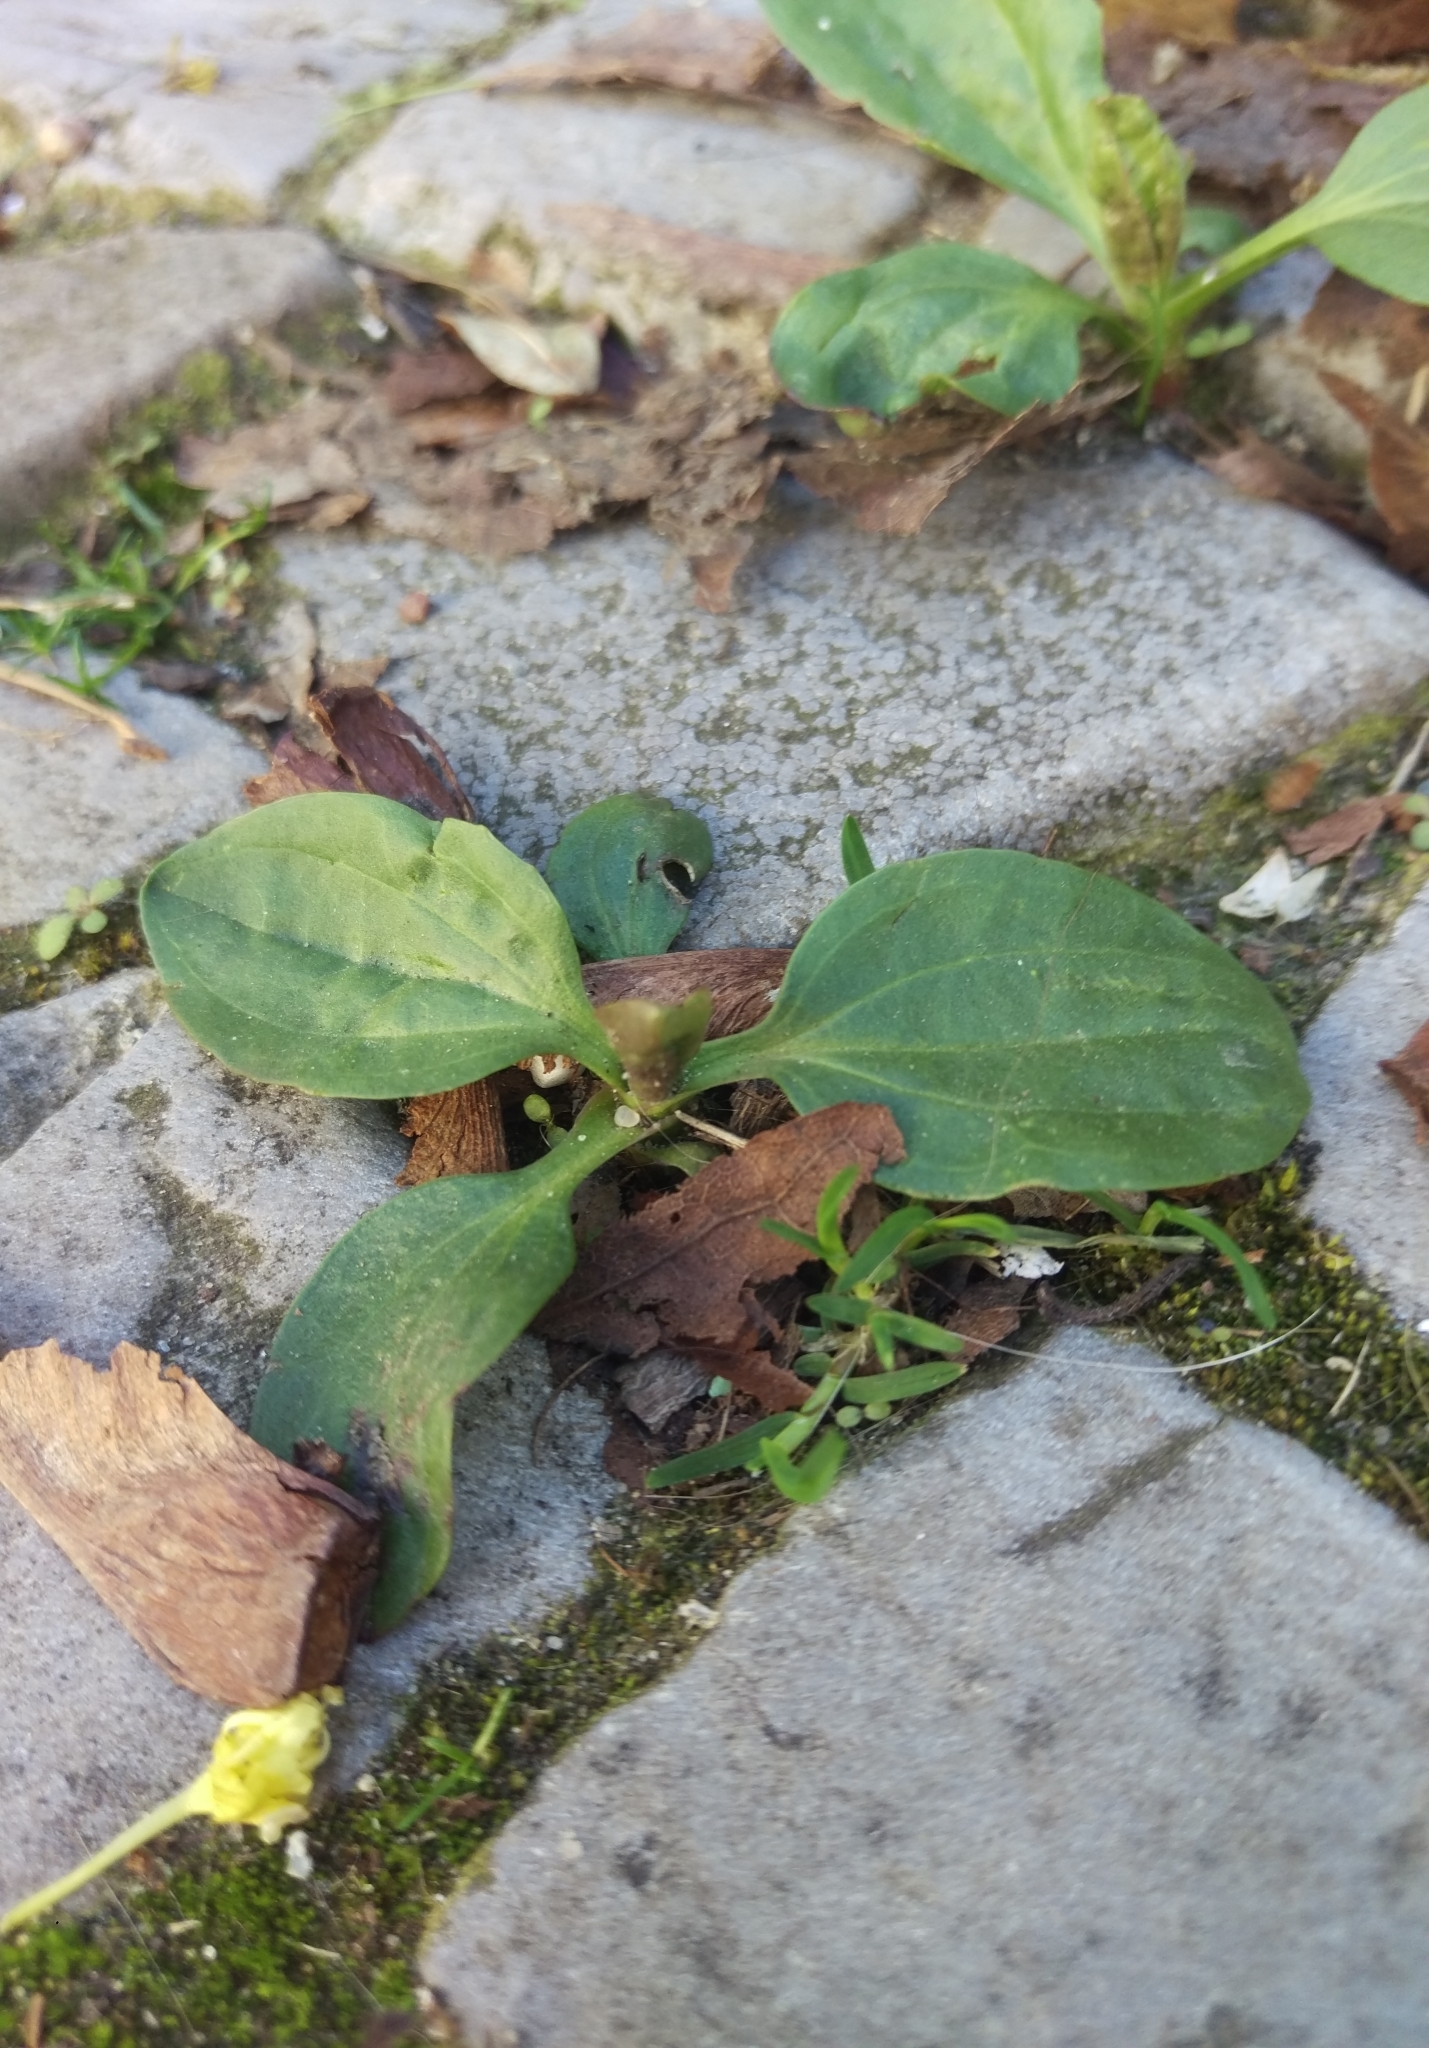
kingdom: Plantae
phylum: Tracheophyta
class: Magnoliopsida
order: Lamiales
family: Plantaginaceae
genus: Plantago
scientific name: Plantago major
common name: Common plantain
